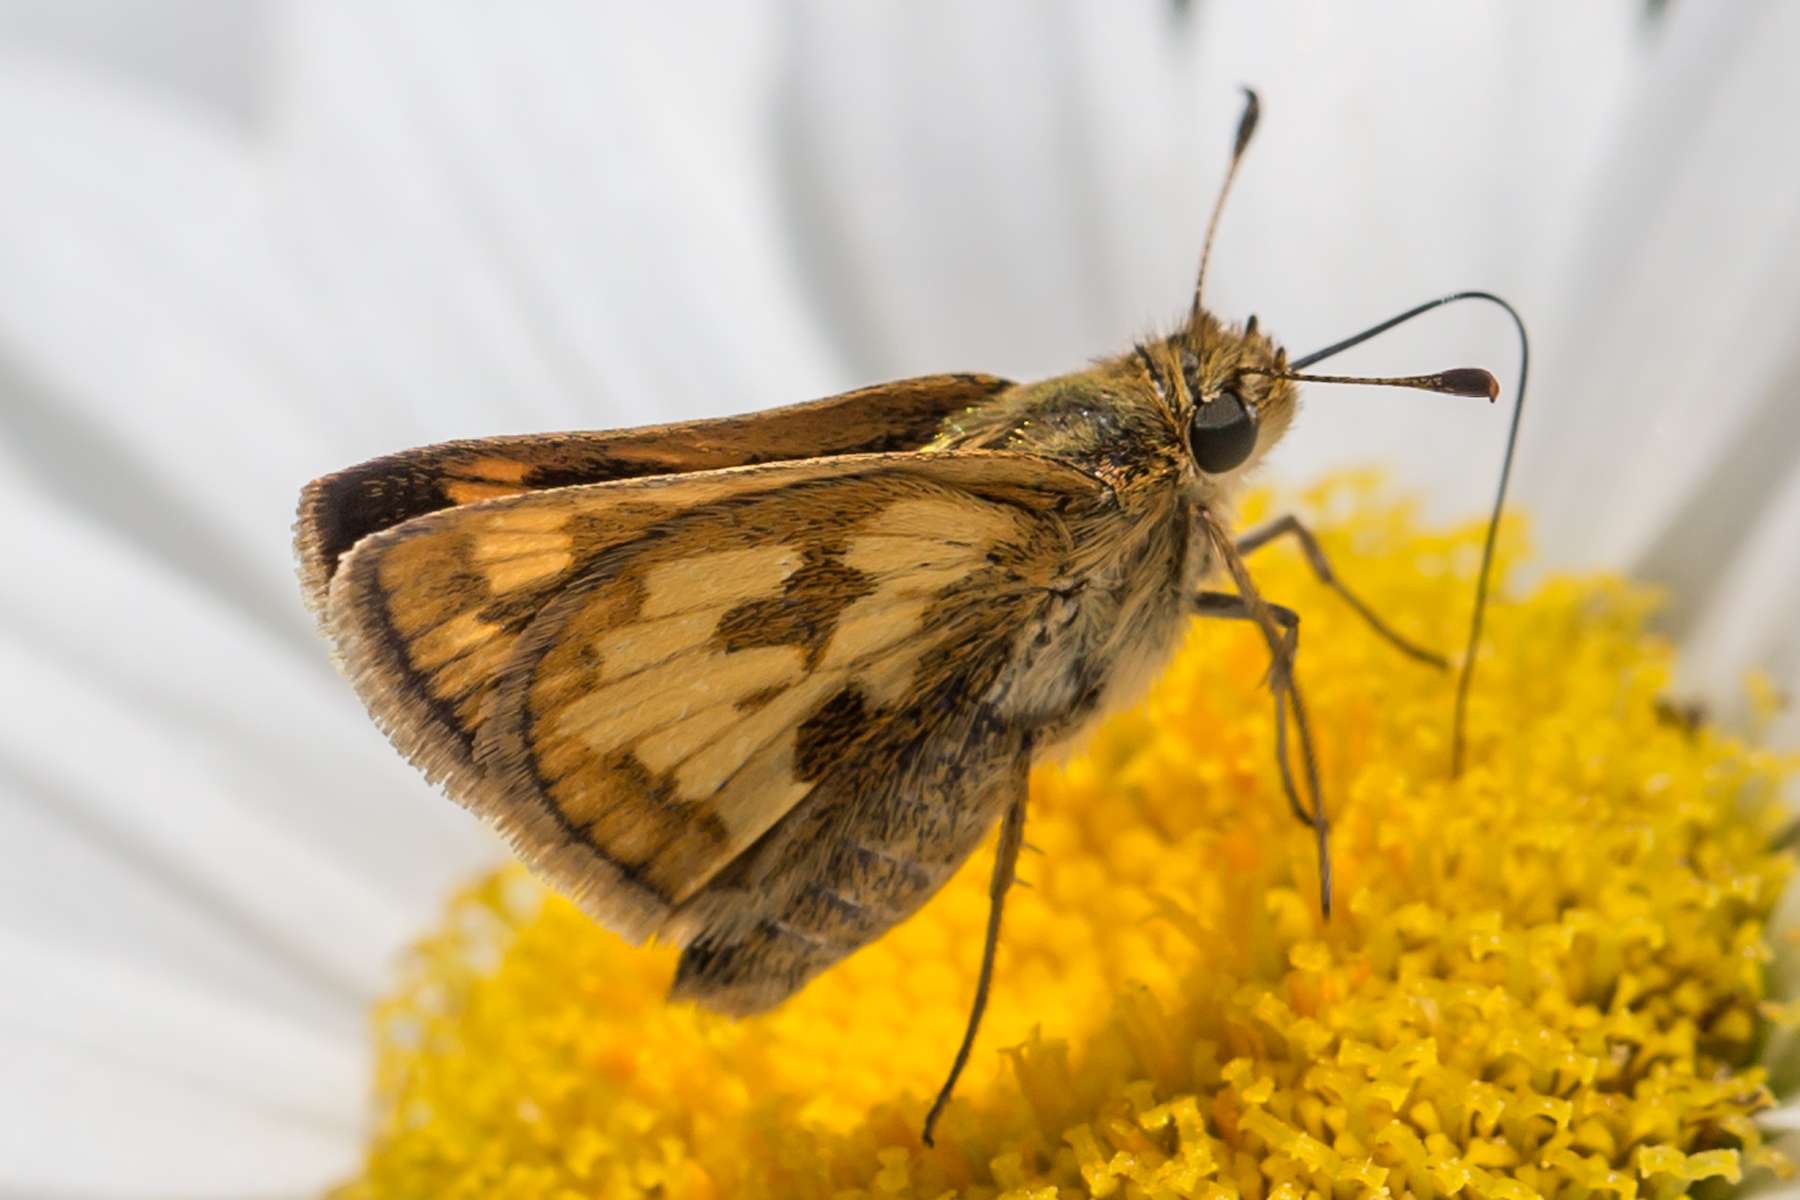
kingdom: Animalia
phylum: Arthropoda
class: Insecta
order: Lepidoptera
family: Hesperiidae
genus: Polites
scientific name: Polites coras
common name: Peck's skipper
